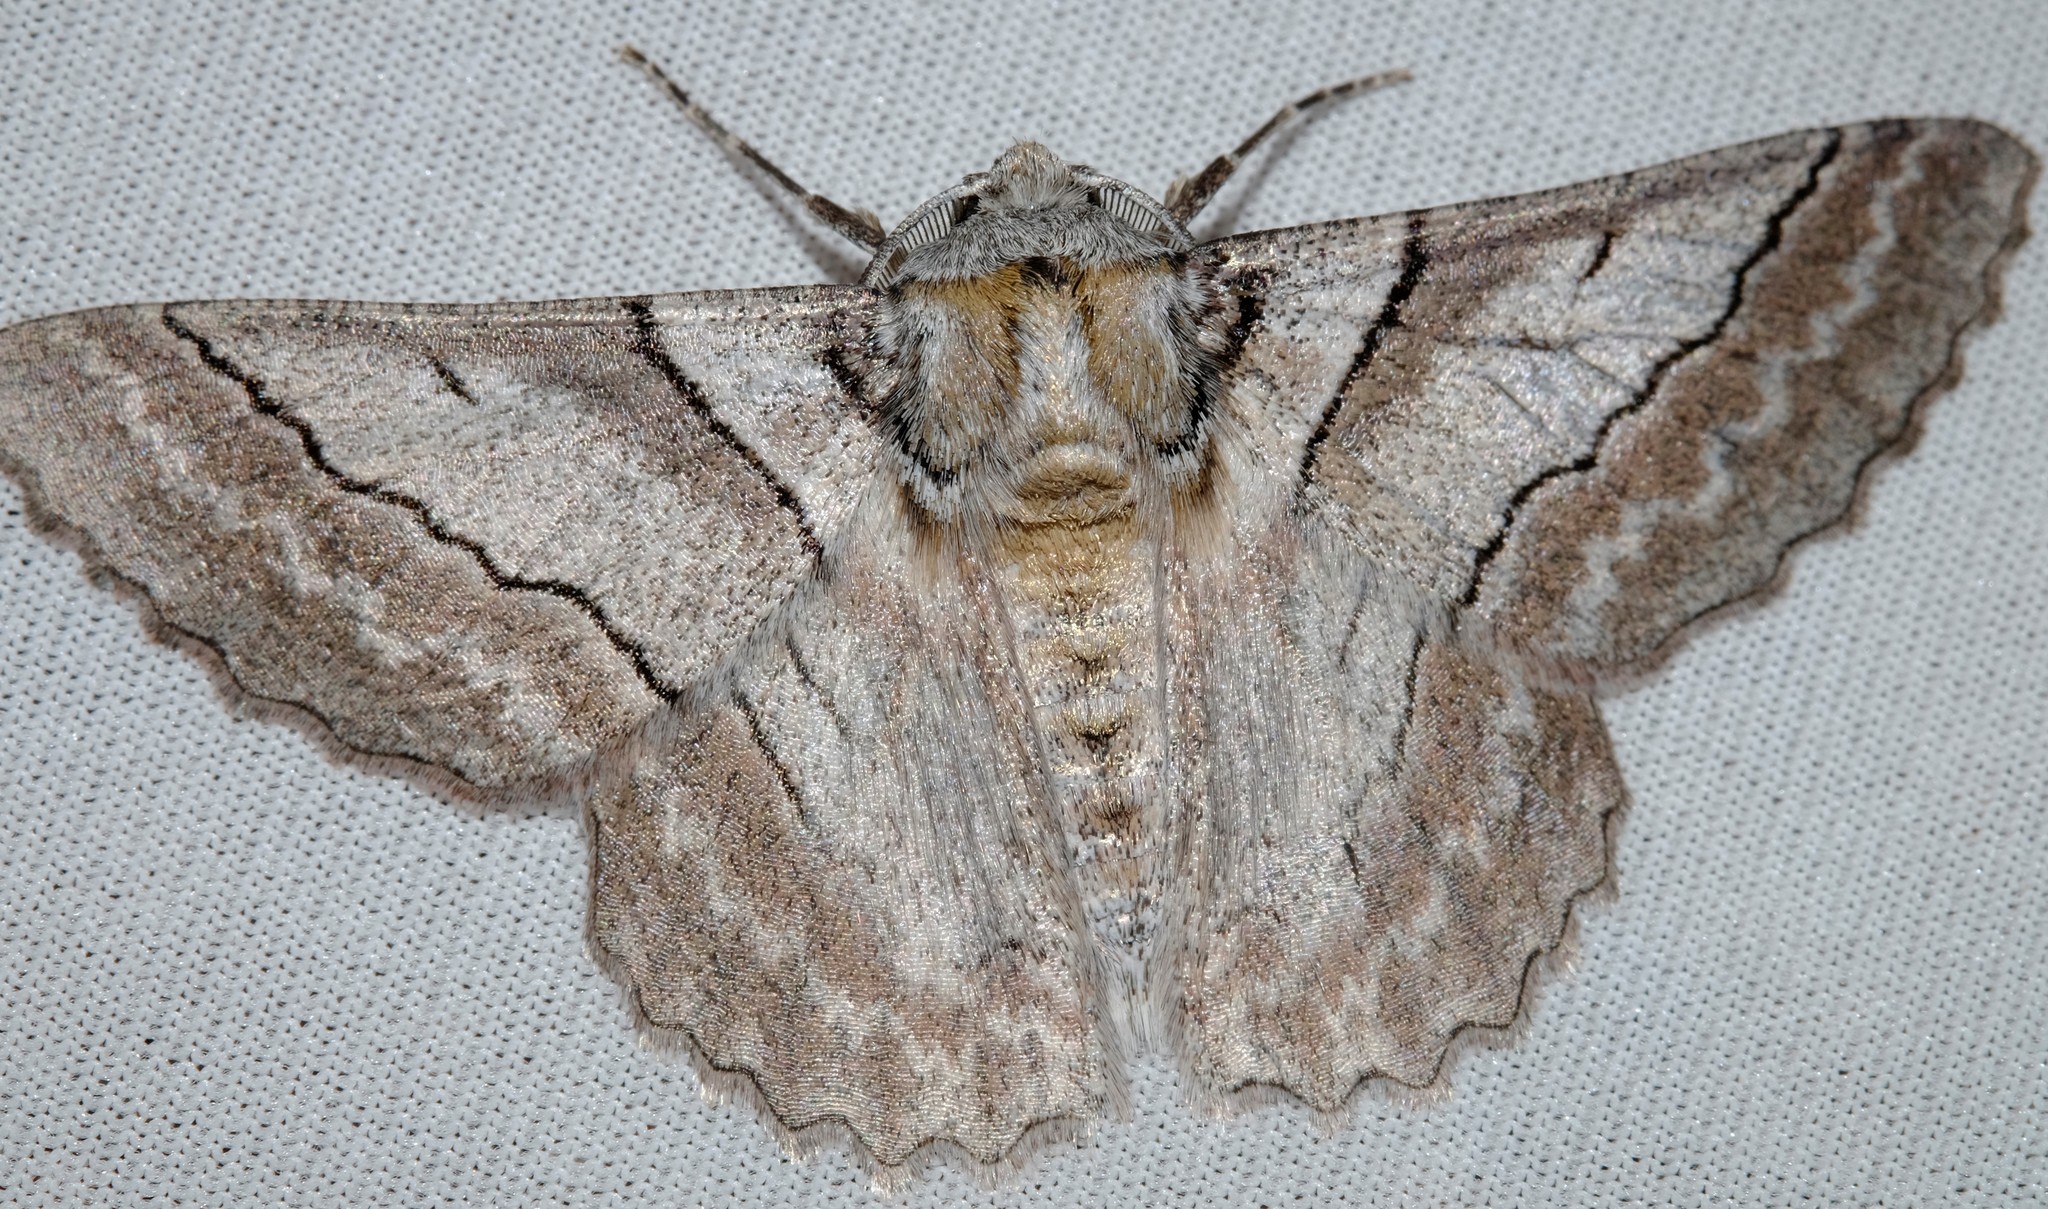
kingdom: Animalia
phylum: Arthropoda
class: Insecta
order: Lepidoptera
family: Geometridae
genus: Hypobapta
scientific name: Hypobapta tachyhalotaria
